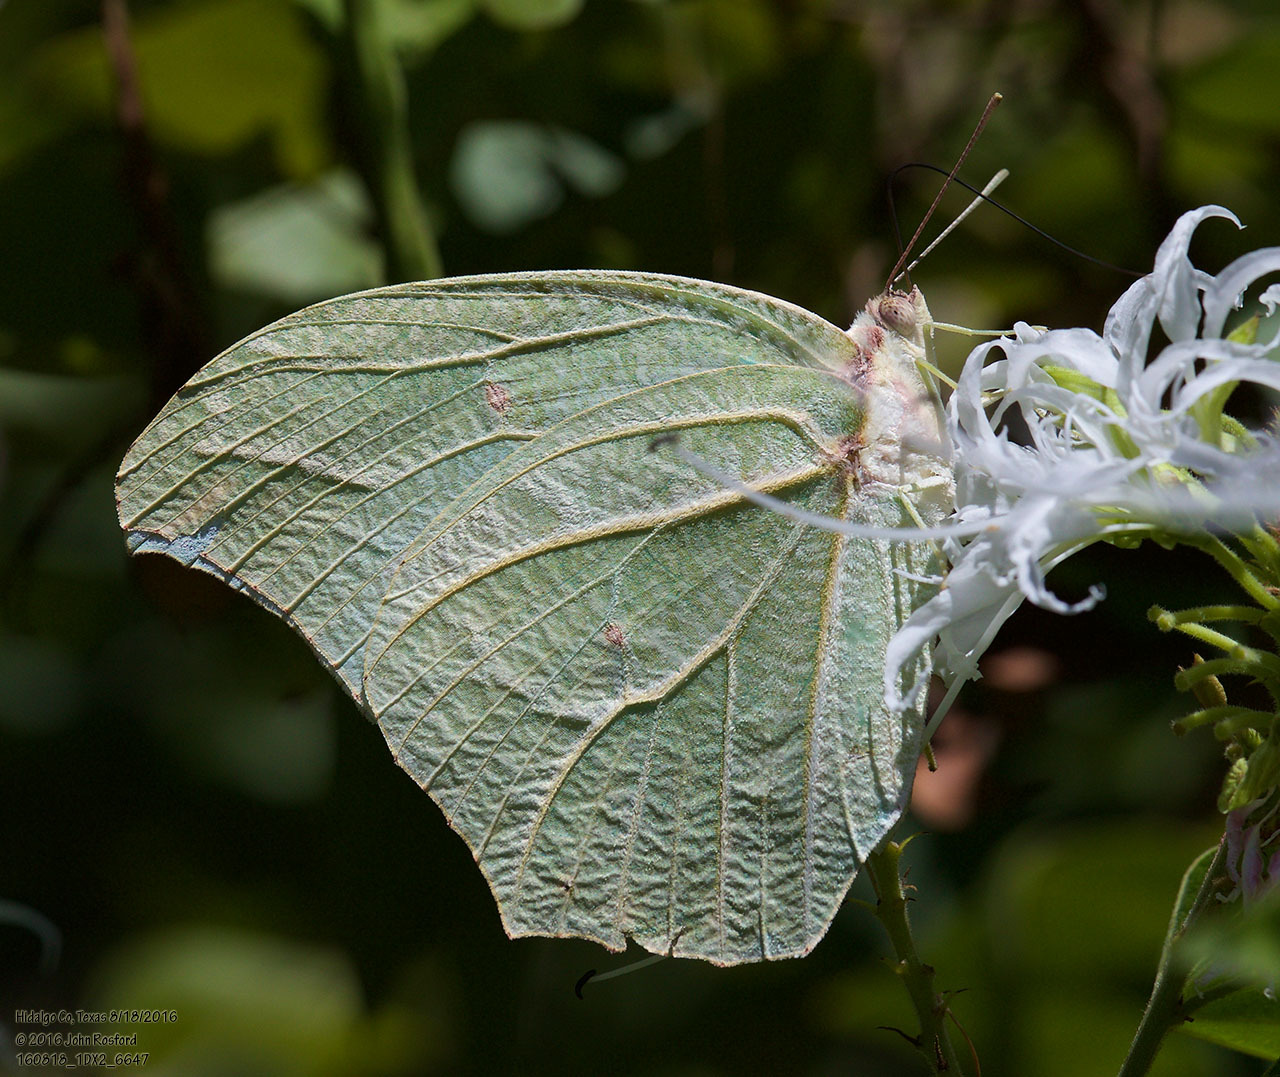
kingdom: Animalia
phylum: Arthropoda
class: Insecta
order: Lepidoptera
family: Pieridae
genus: Anteos
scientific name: Anteos clorinde
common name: White angled sulphur
